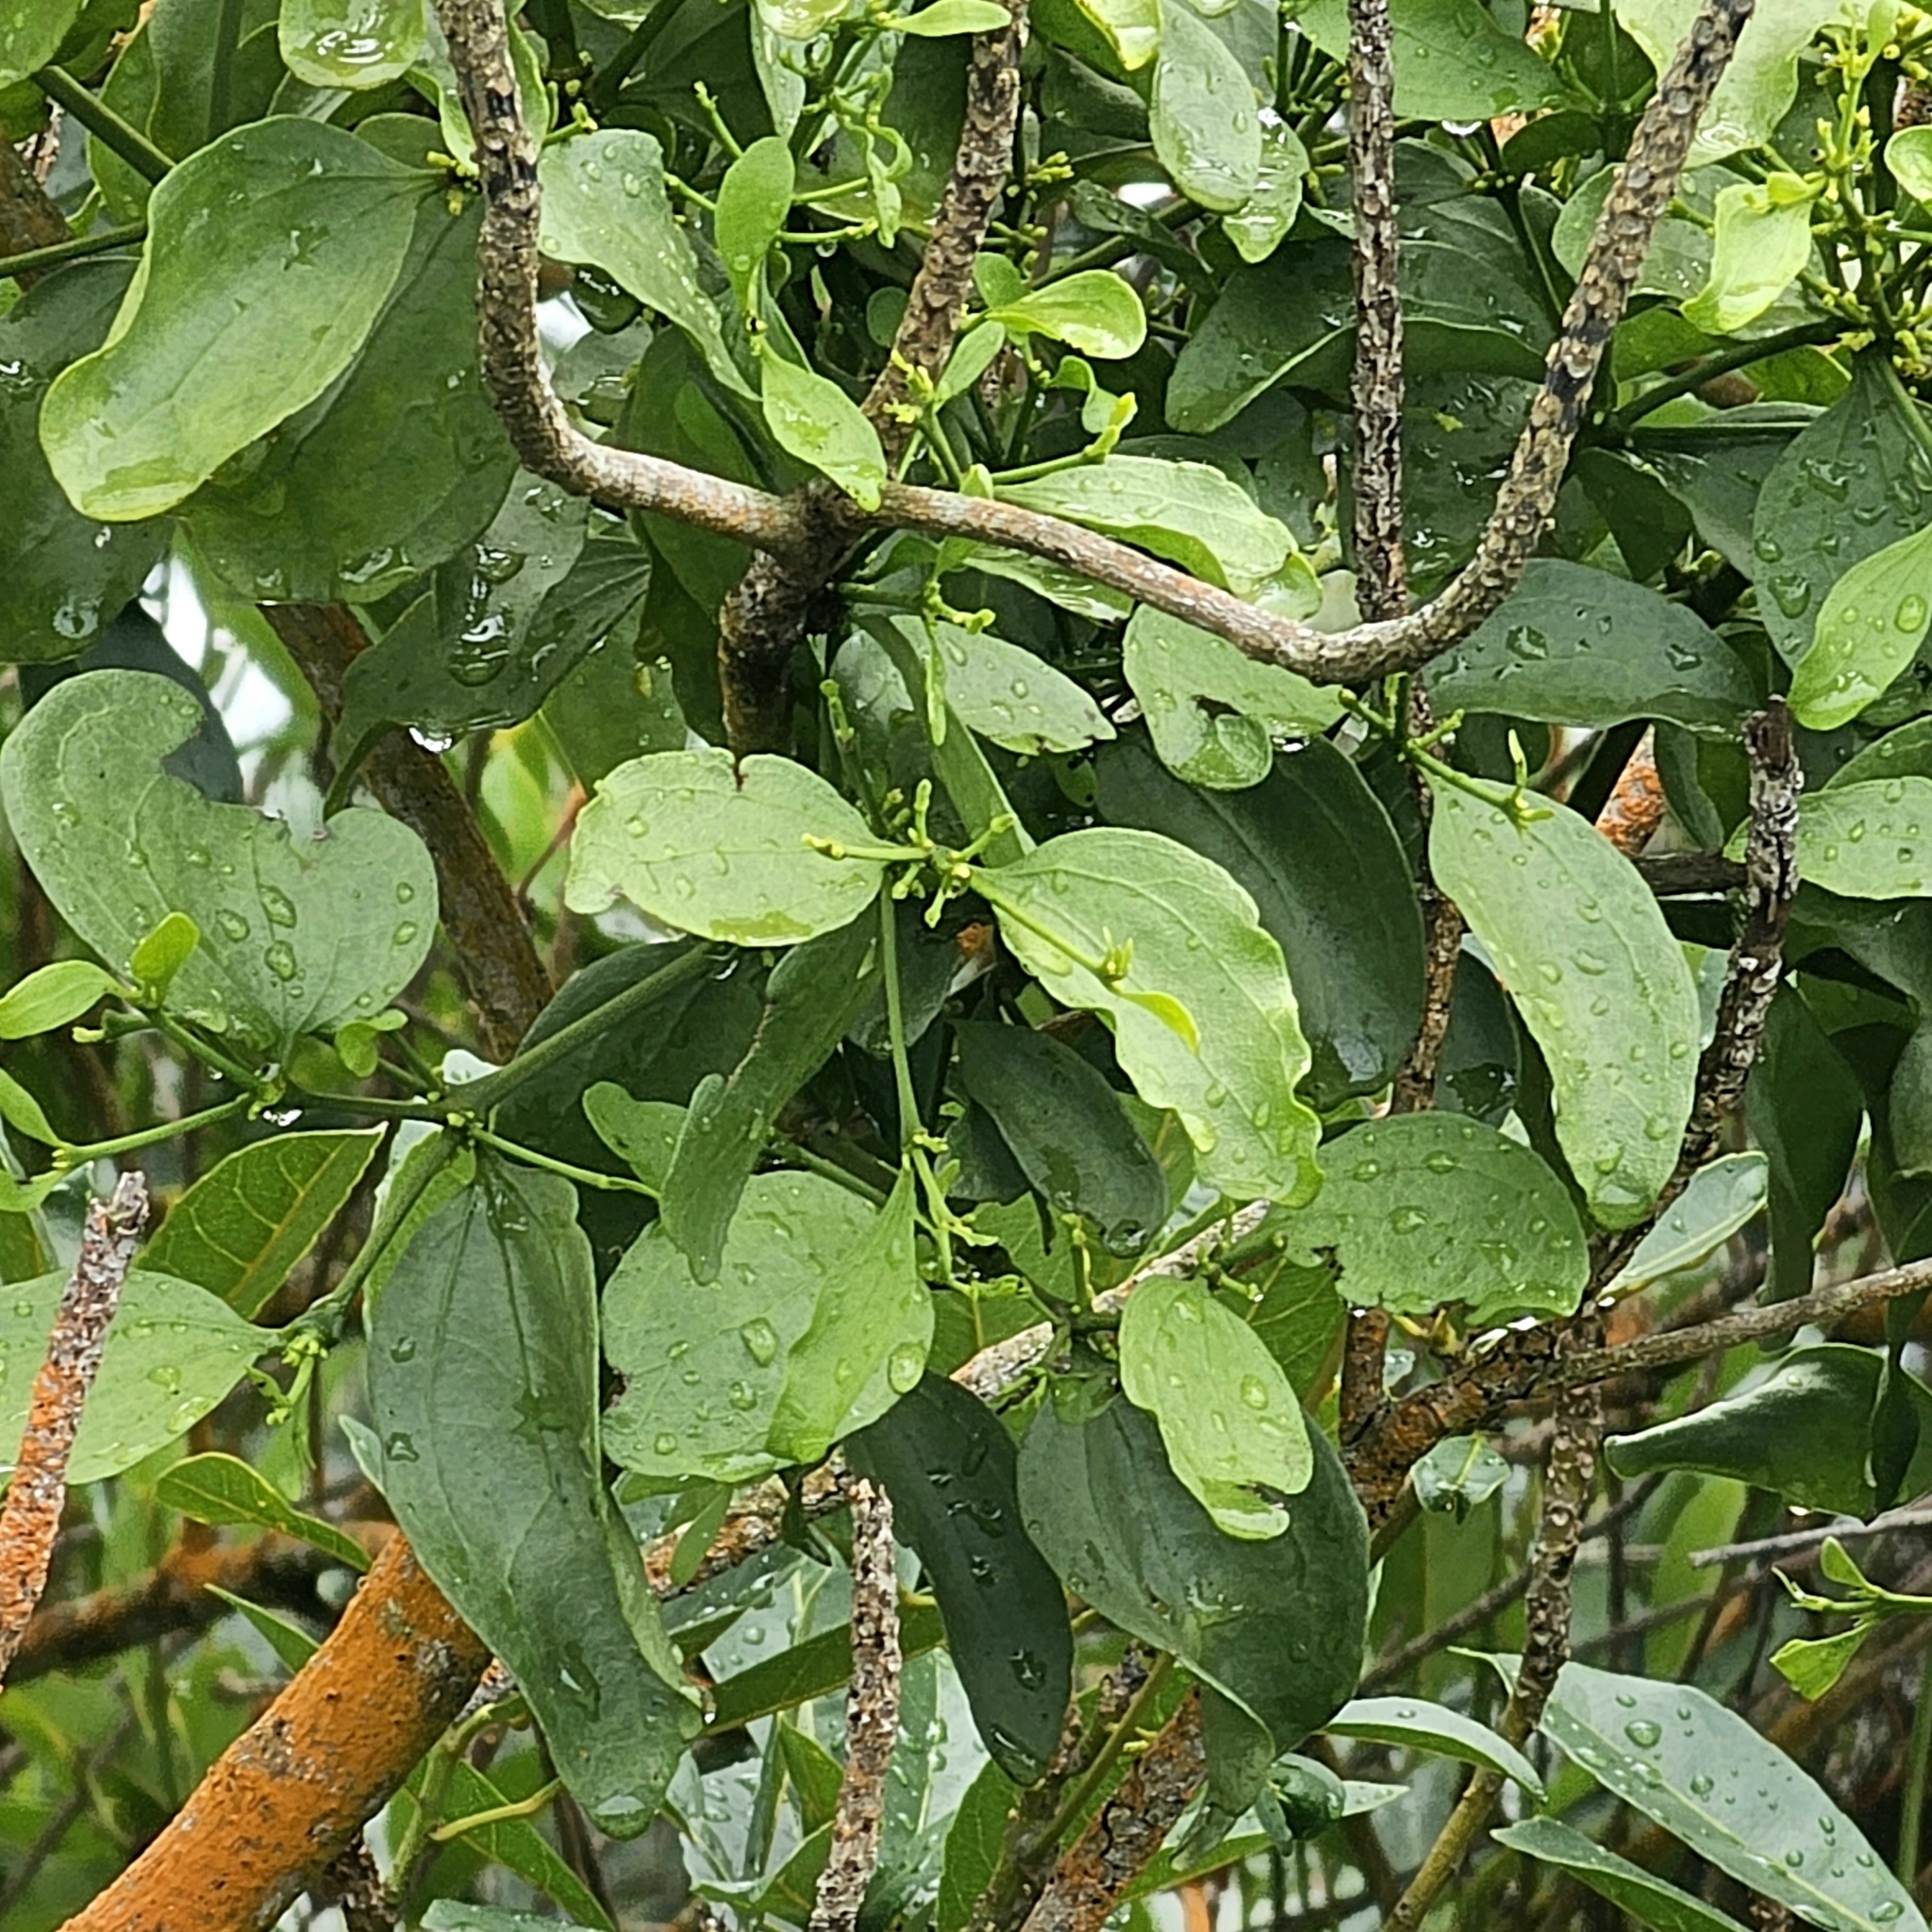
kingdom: Plantae
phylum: Tracheophyta
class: Magnoliopsida
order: Santalales
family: Viscaceae
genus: Viscum
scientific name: Viscum ovalifolium
